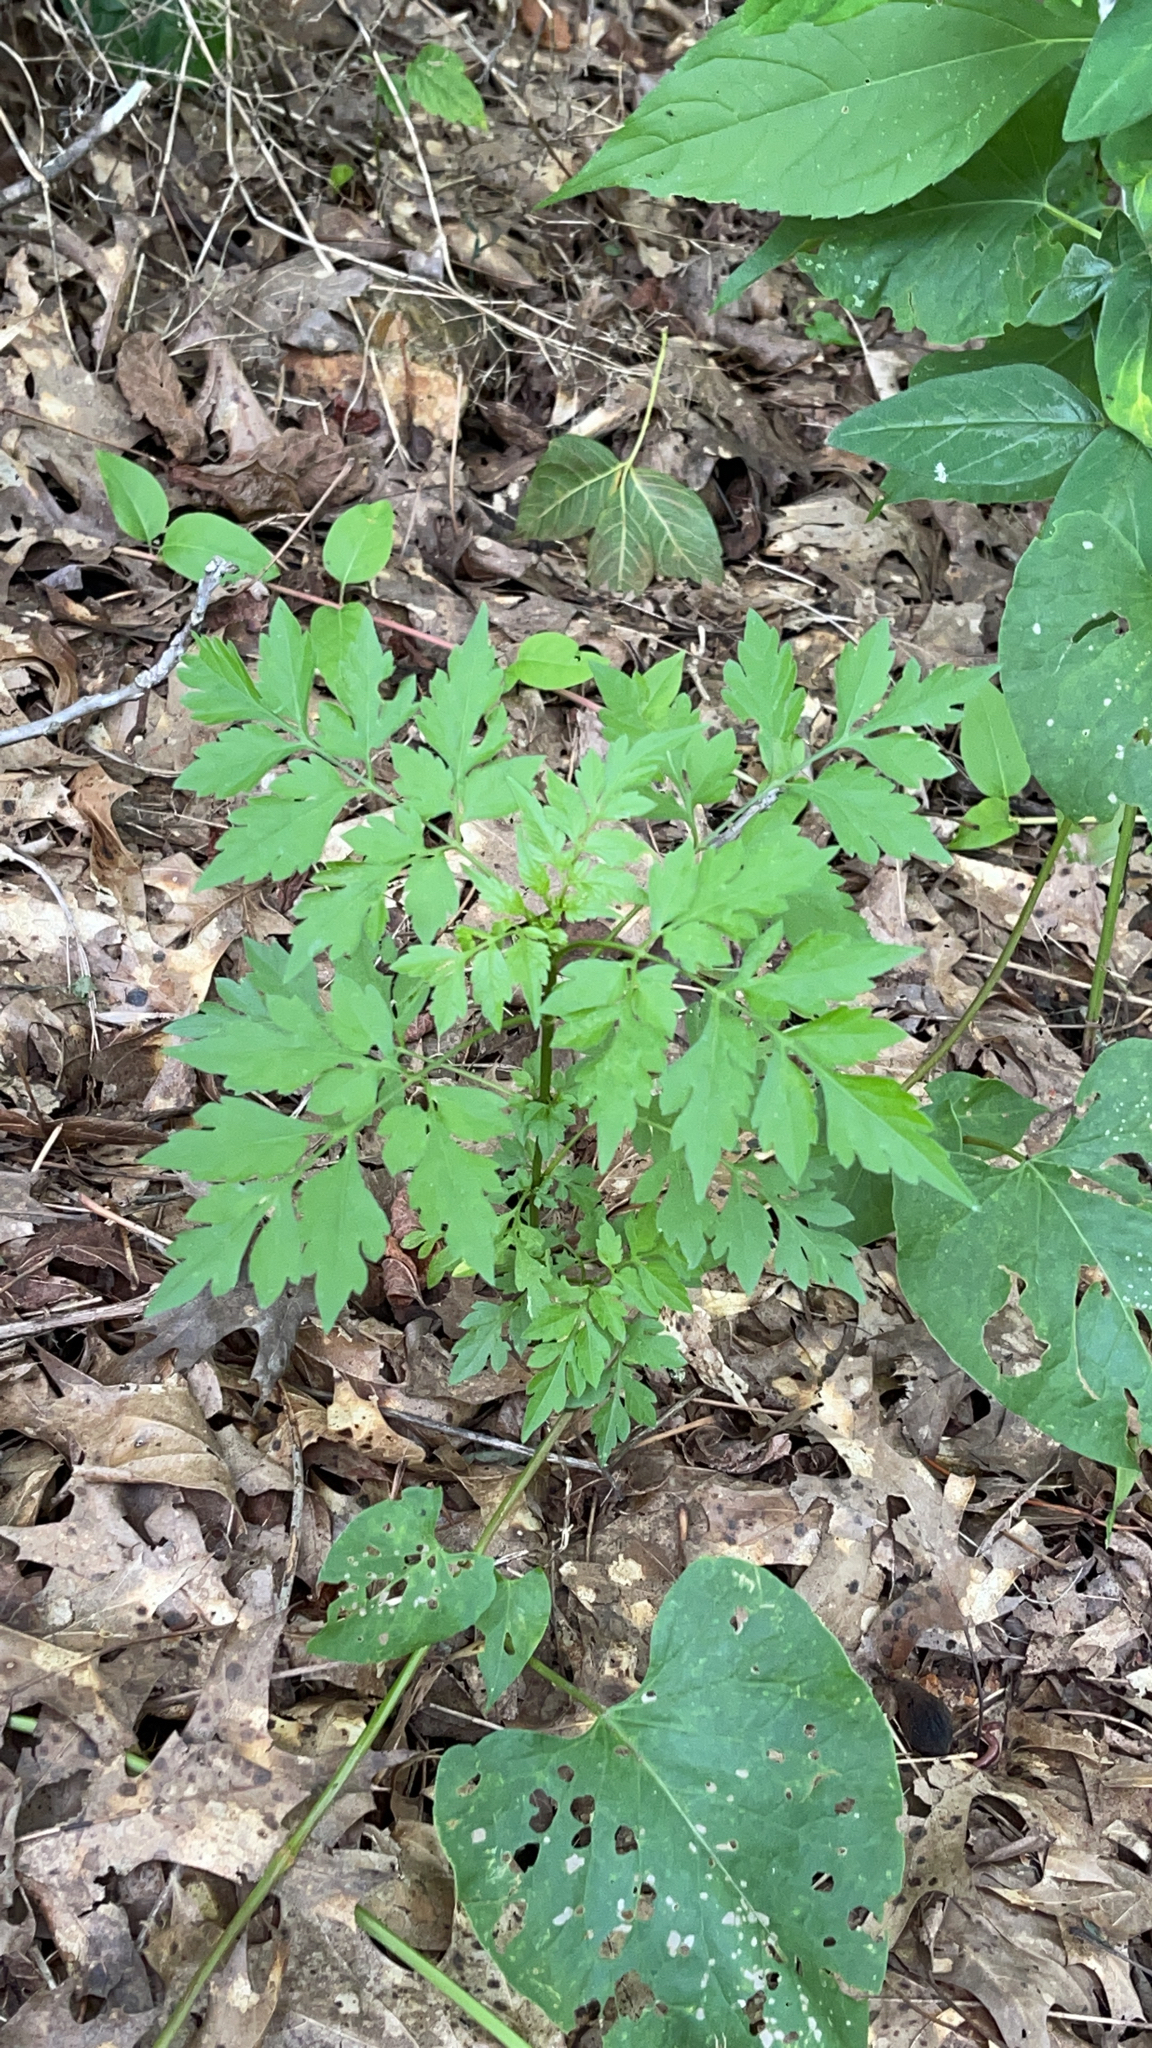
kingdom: Plantae
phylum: Tracheophyta
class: Magnoliopsida
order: Asterales
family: Asteraceae
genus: Bidens
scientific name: Bidens bipinnata
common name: Spanish-needles
